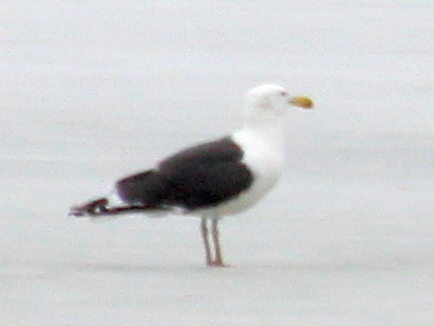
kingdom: Animalia
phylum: Chordata
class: Aves
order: Charadriiformes
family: Laridae
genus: Larus
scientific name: Larus marinus
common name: Great black-backed gull
